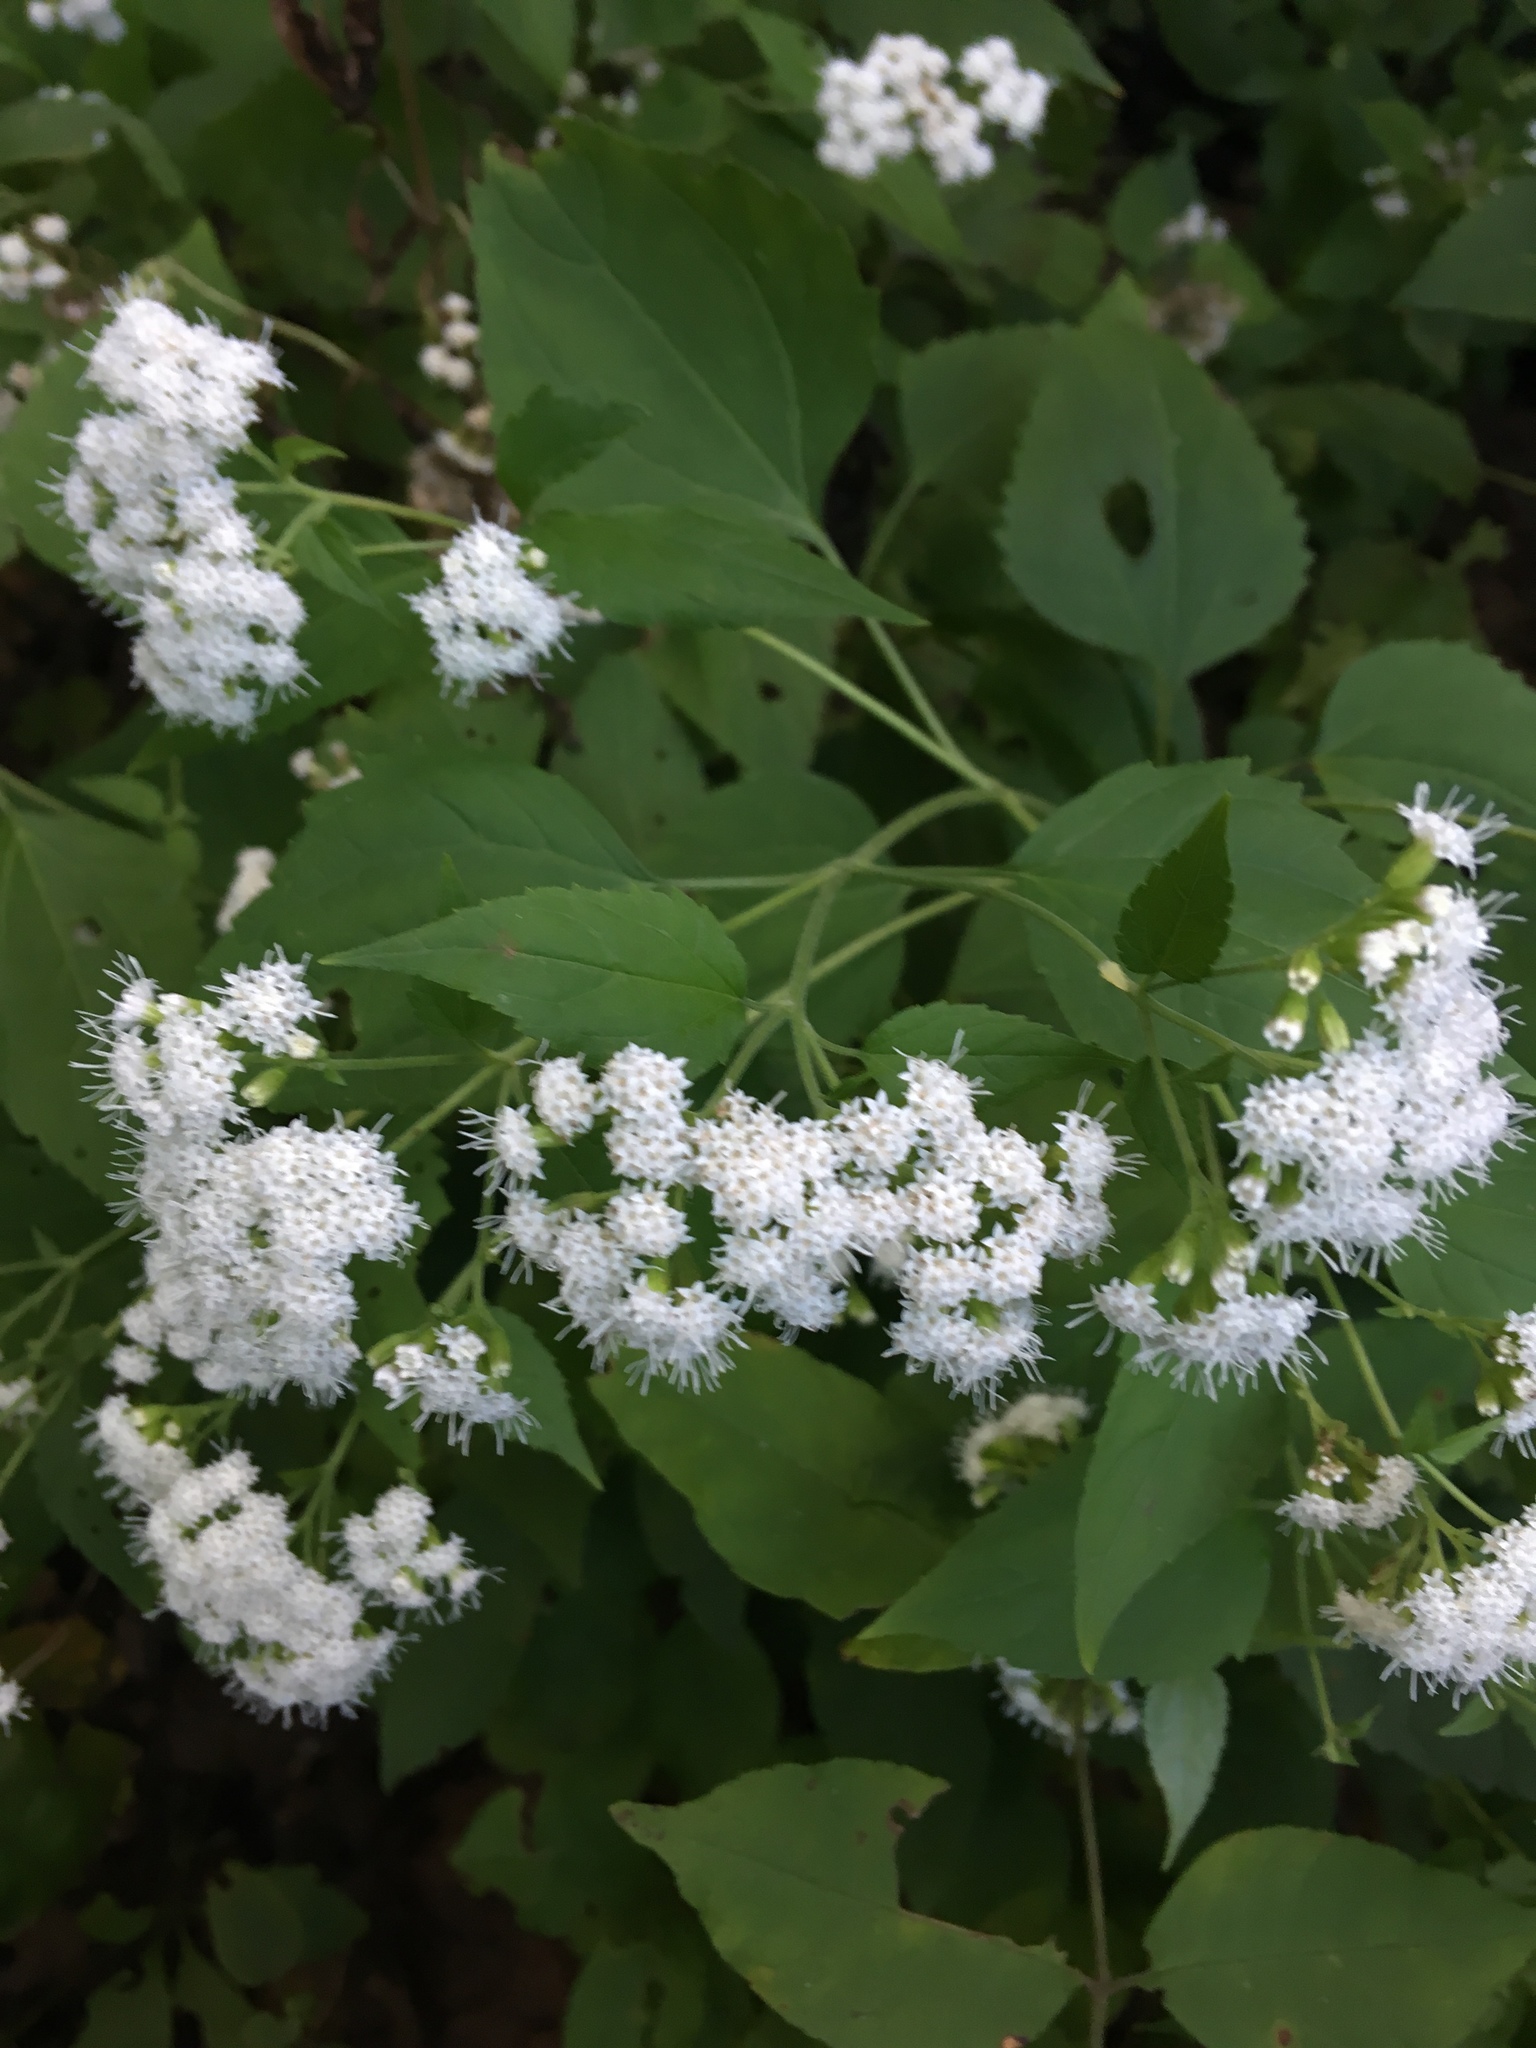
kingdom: Plantae
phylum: Tracheophyta
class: Magnoliopsida
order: Asterales
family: Asteraceae
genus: Ageratina
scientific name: Ageratina altissima
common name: White snakeroot
